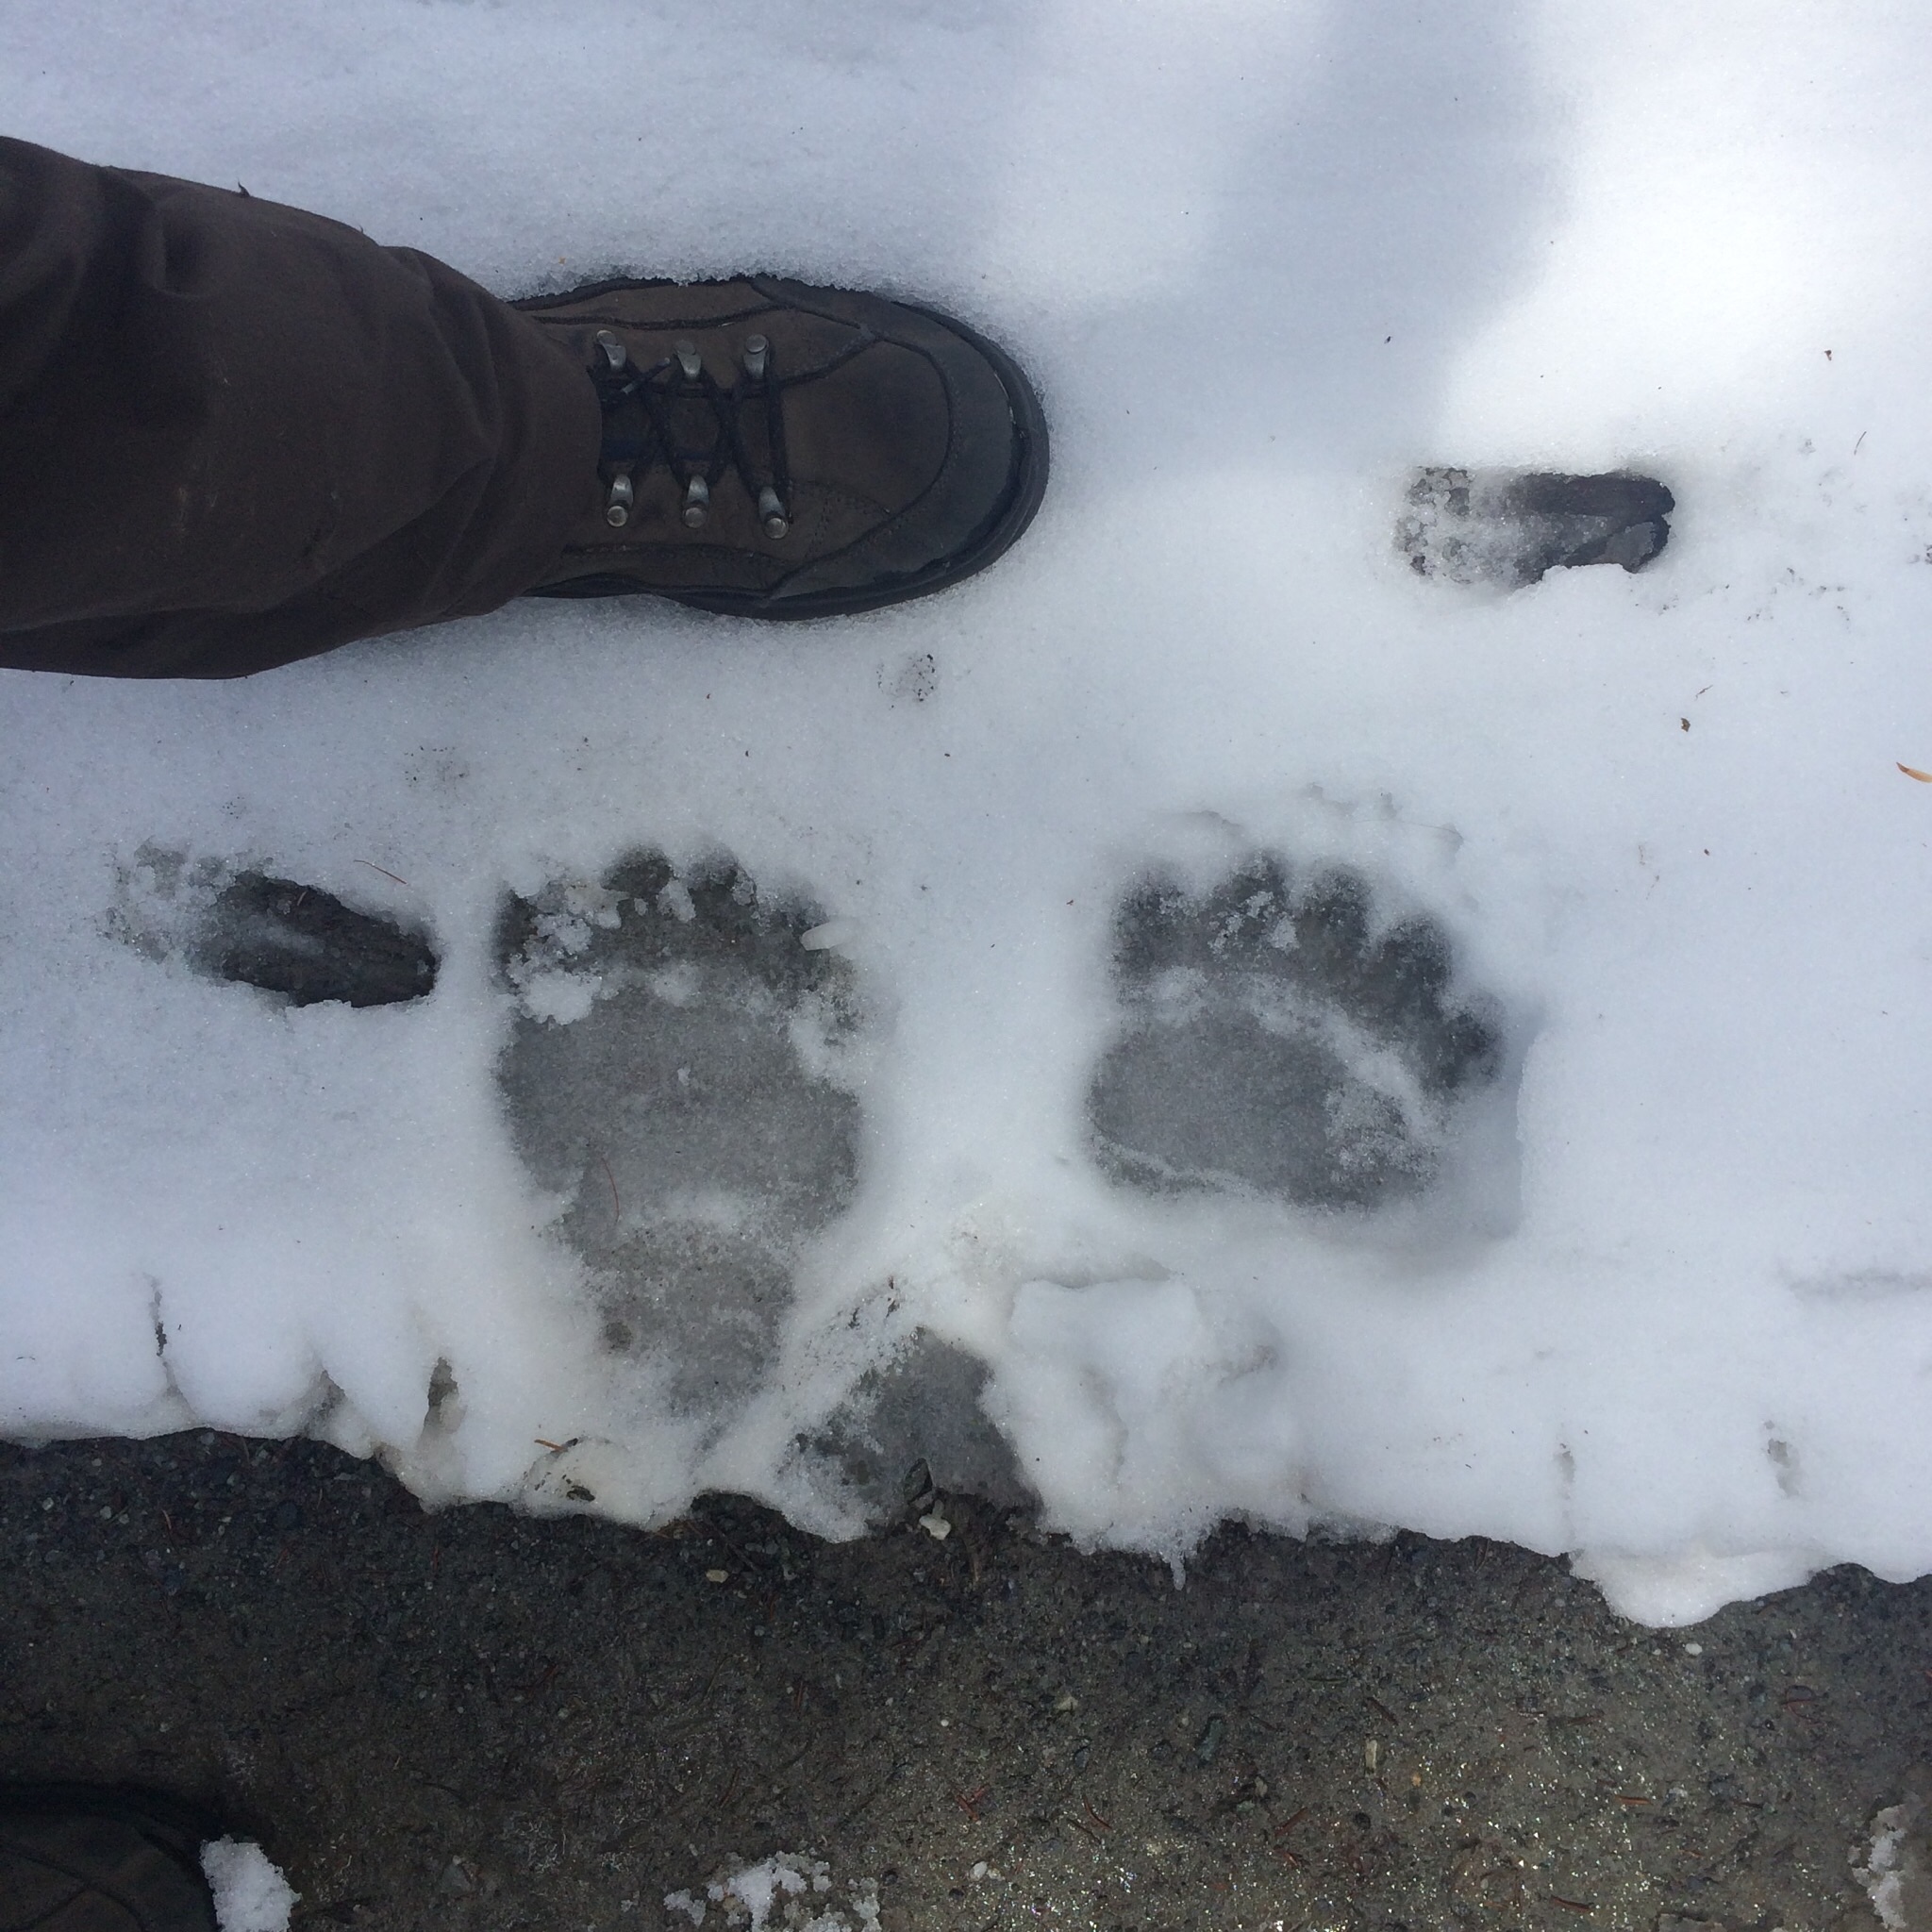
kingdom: Animalia
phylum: Chordata
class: Mammalia
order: Carnivora
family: Ursidae
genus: Ursus
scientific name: Ursus arctos
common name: Brown bear
